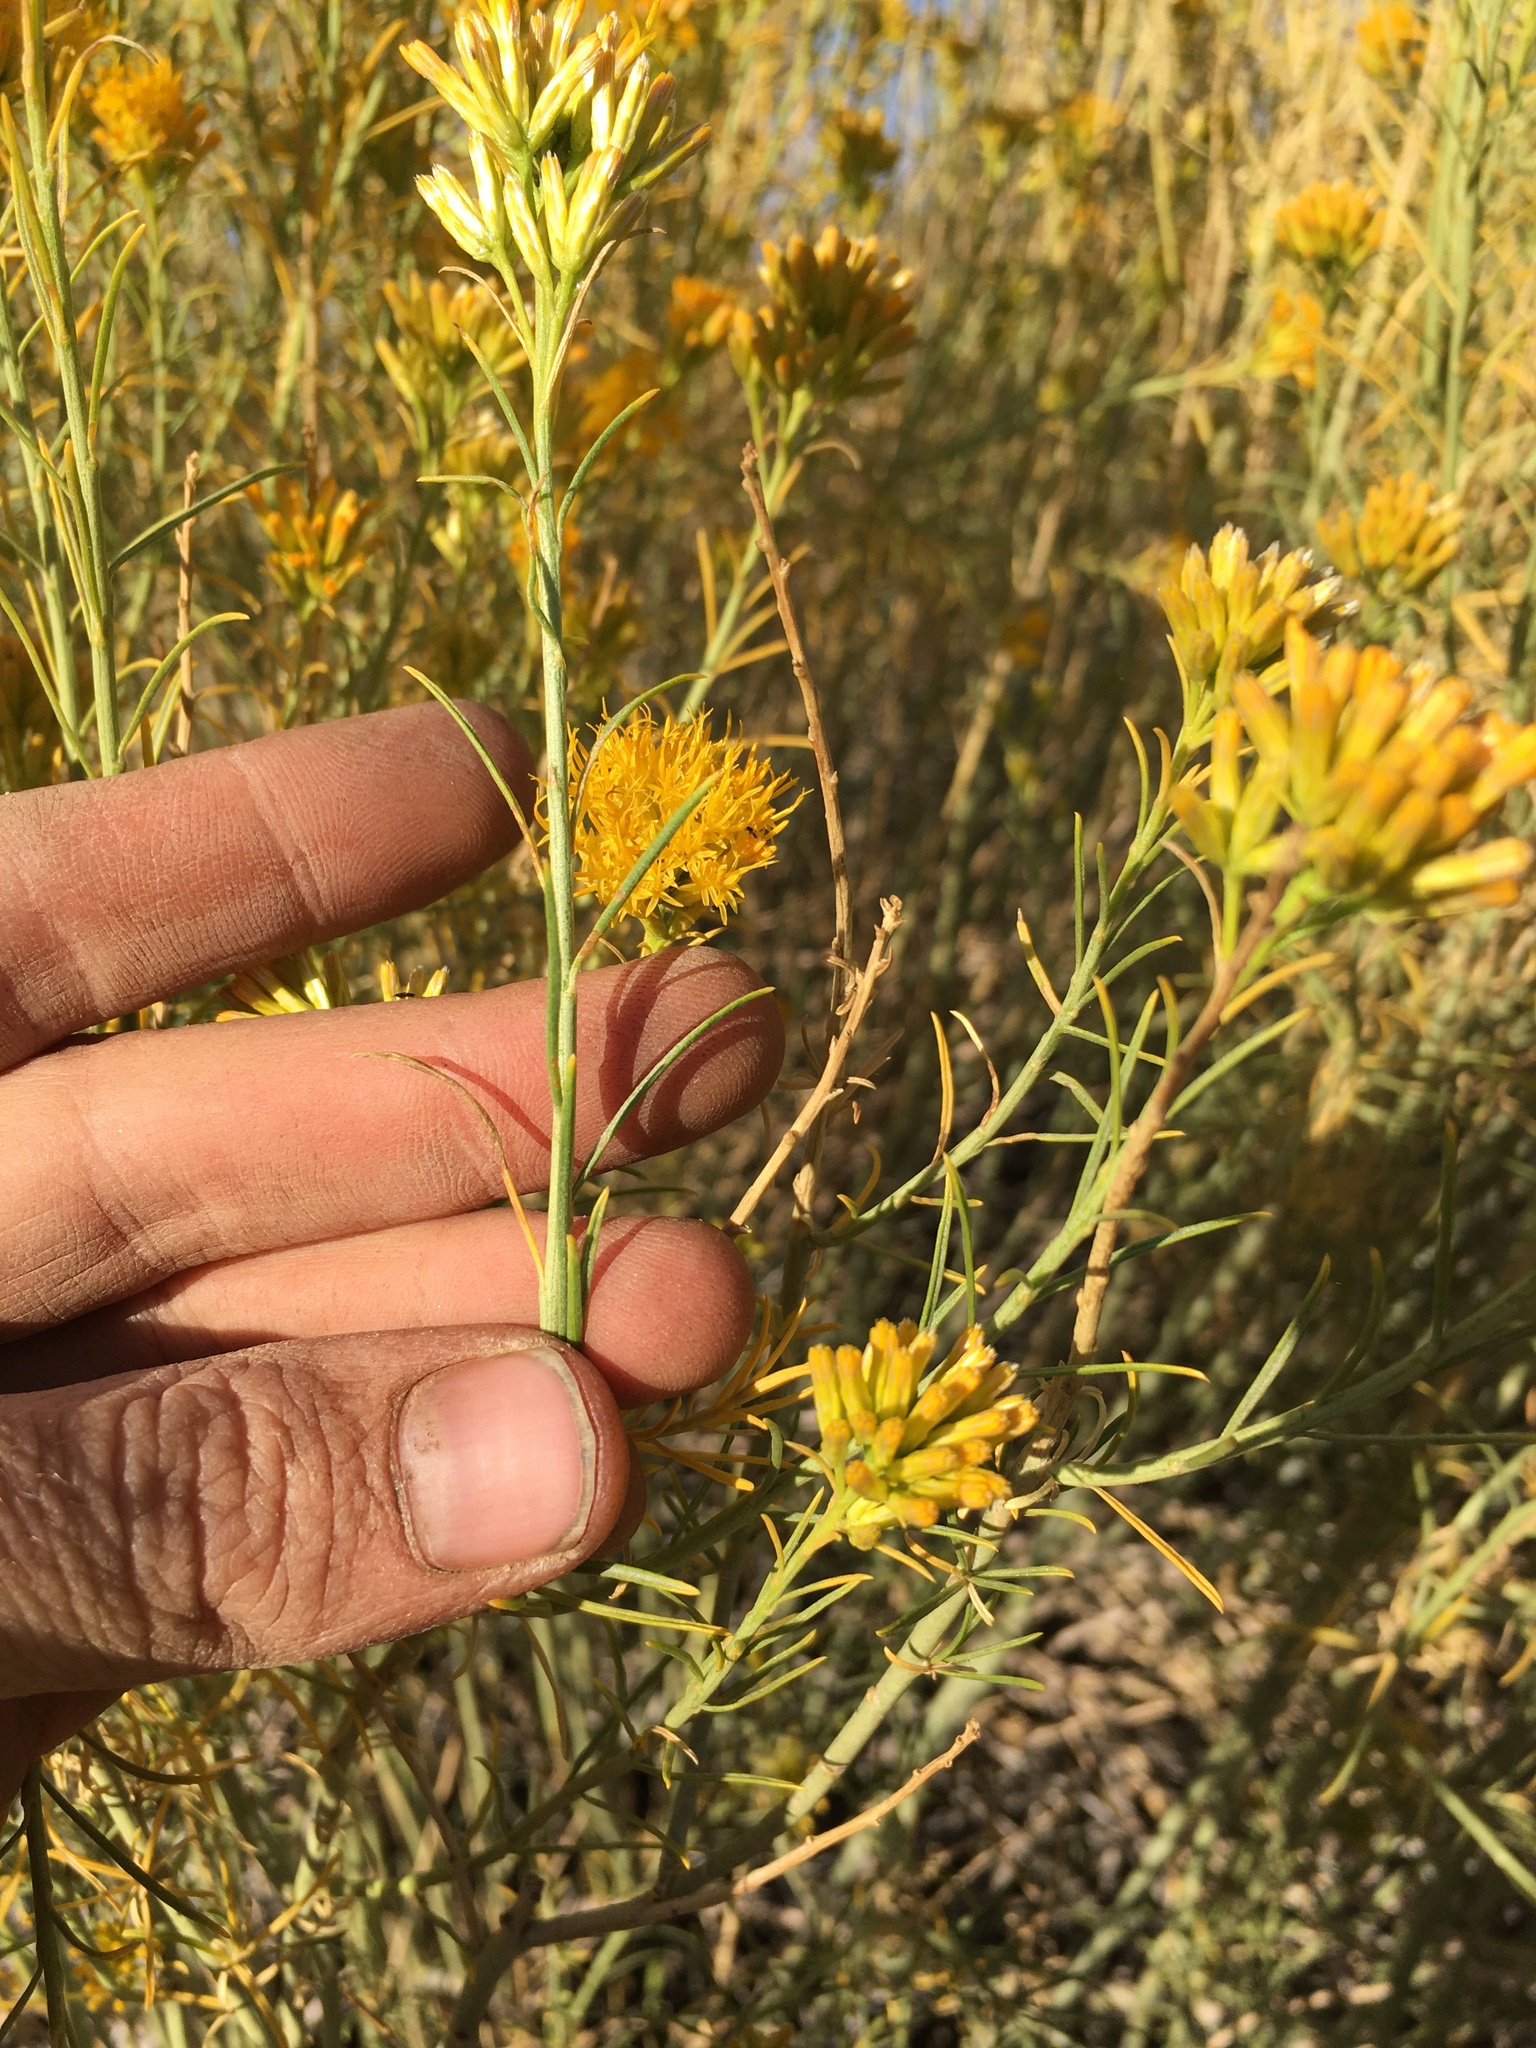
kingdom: Plantae
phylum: Tracheophyta
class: Magnoliopsida
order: Asterales
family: Asteraceae
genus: Ericameria
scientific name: Ericameria nauseosa
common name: Rubber rabbitbrush
